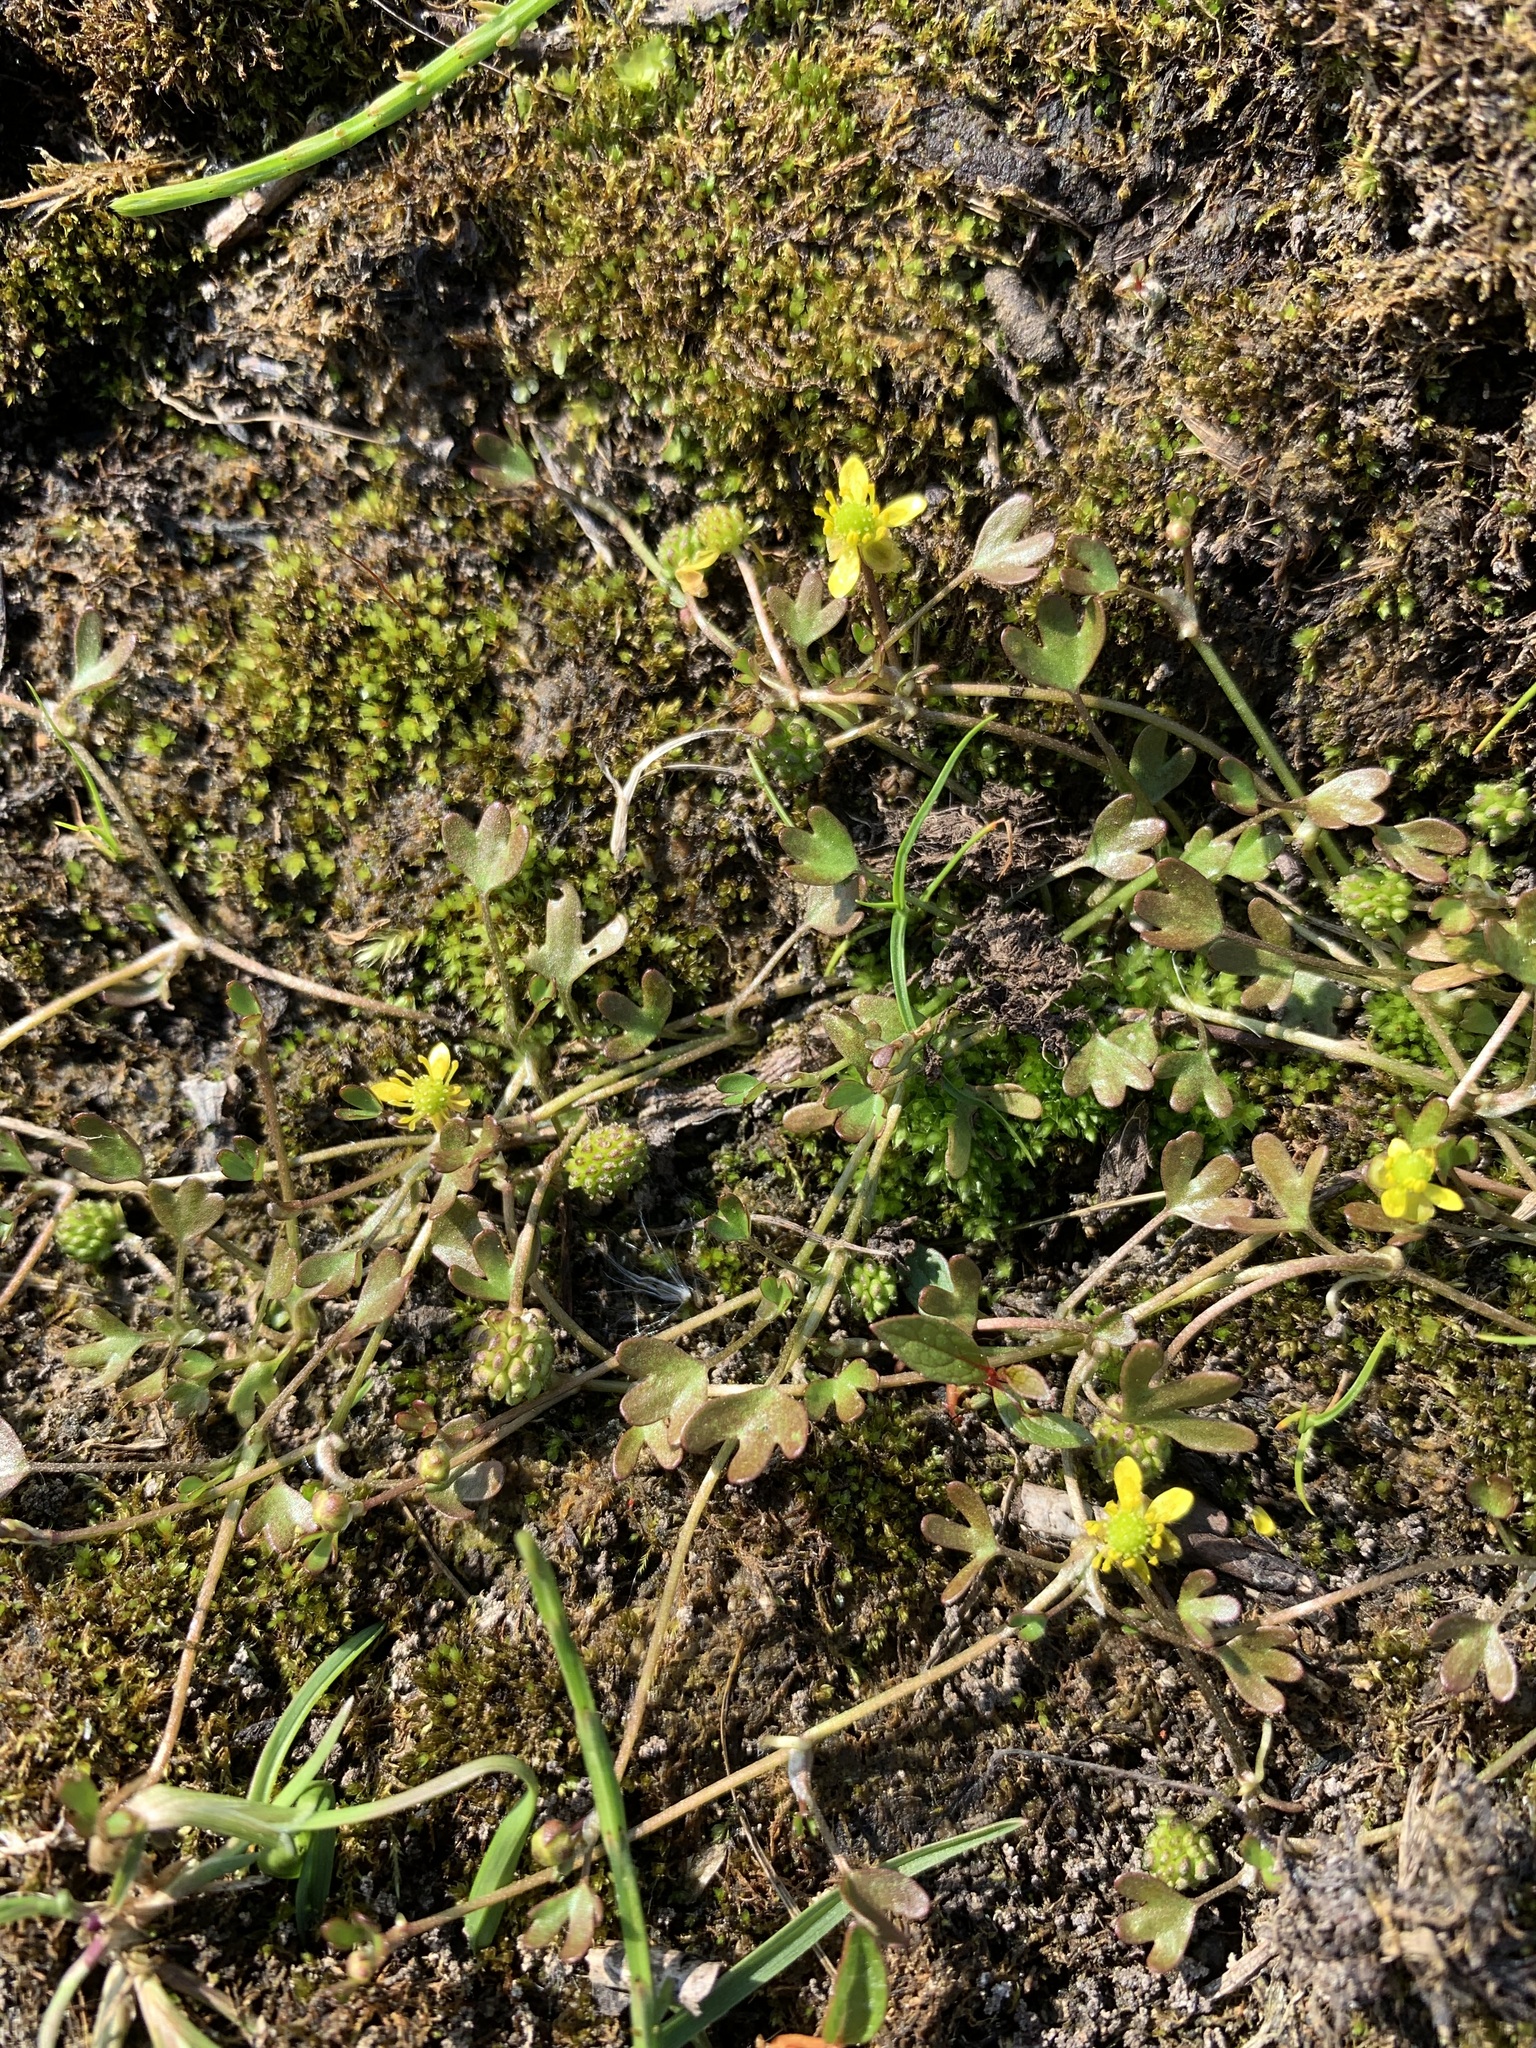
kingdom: Plantae
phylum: Tracheophyta
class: Magnoliopsida
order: Ranunculales
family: Ranunculaceae
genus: Ranunculus
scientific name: Ranunculus hyperboreus
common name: Arctic buttercup
